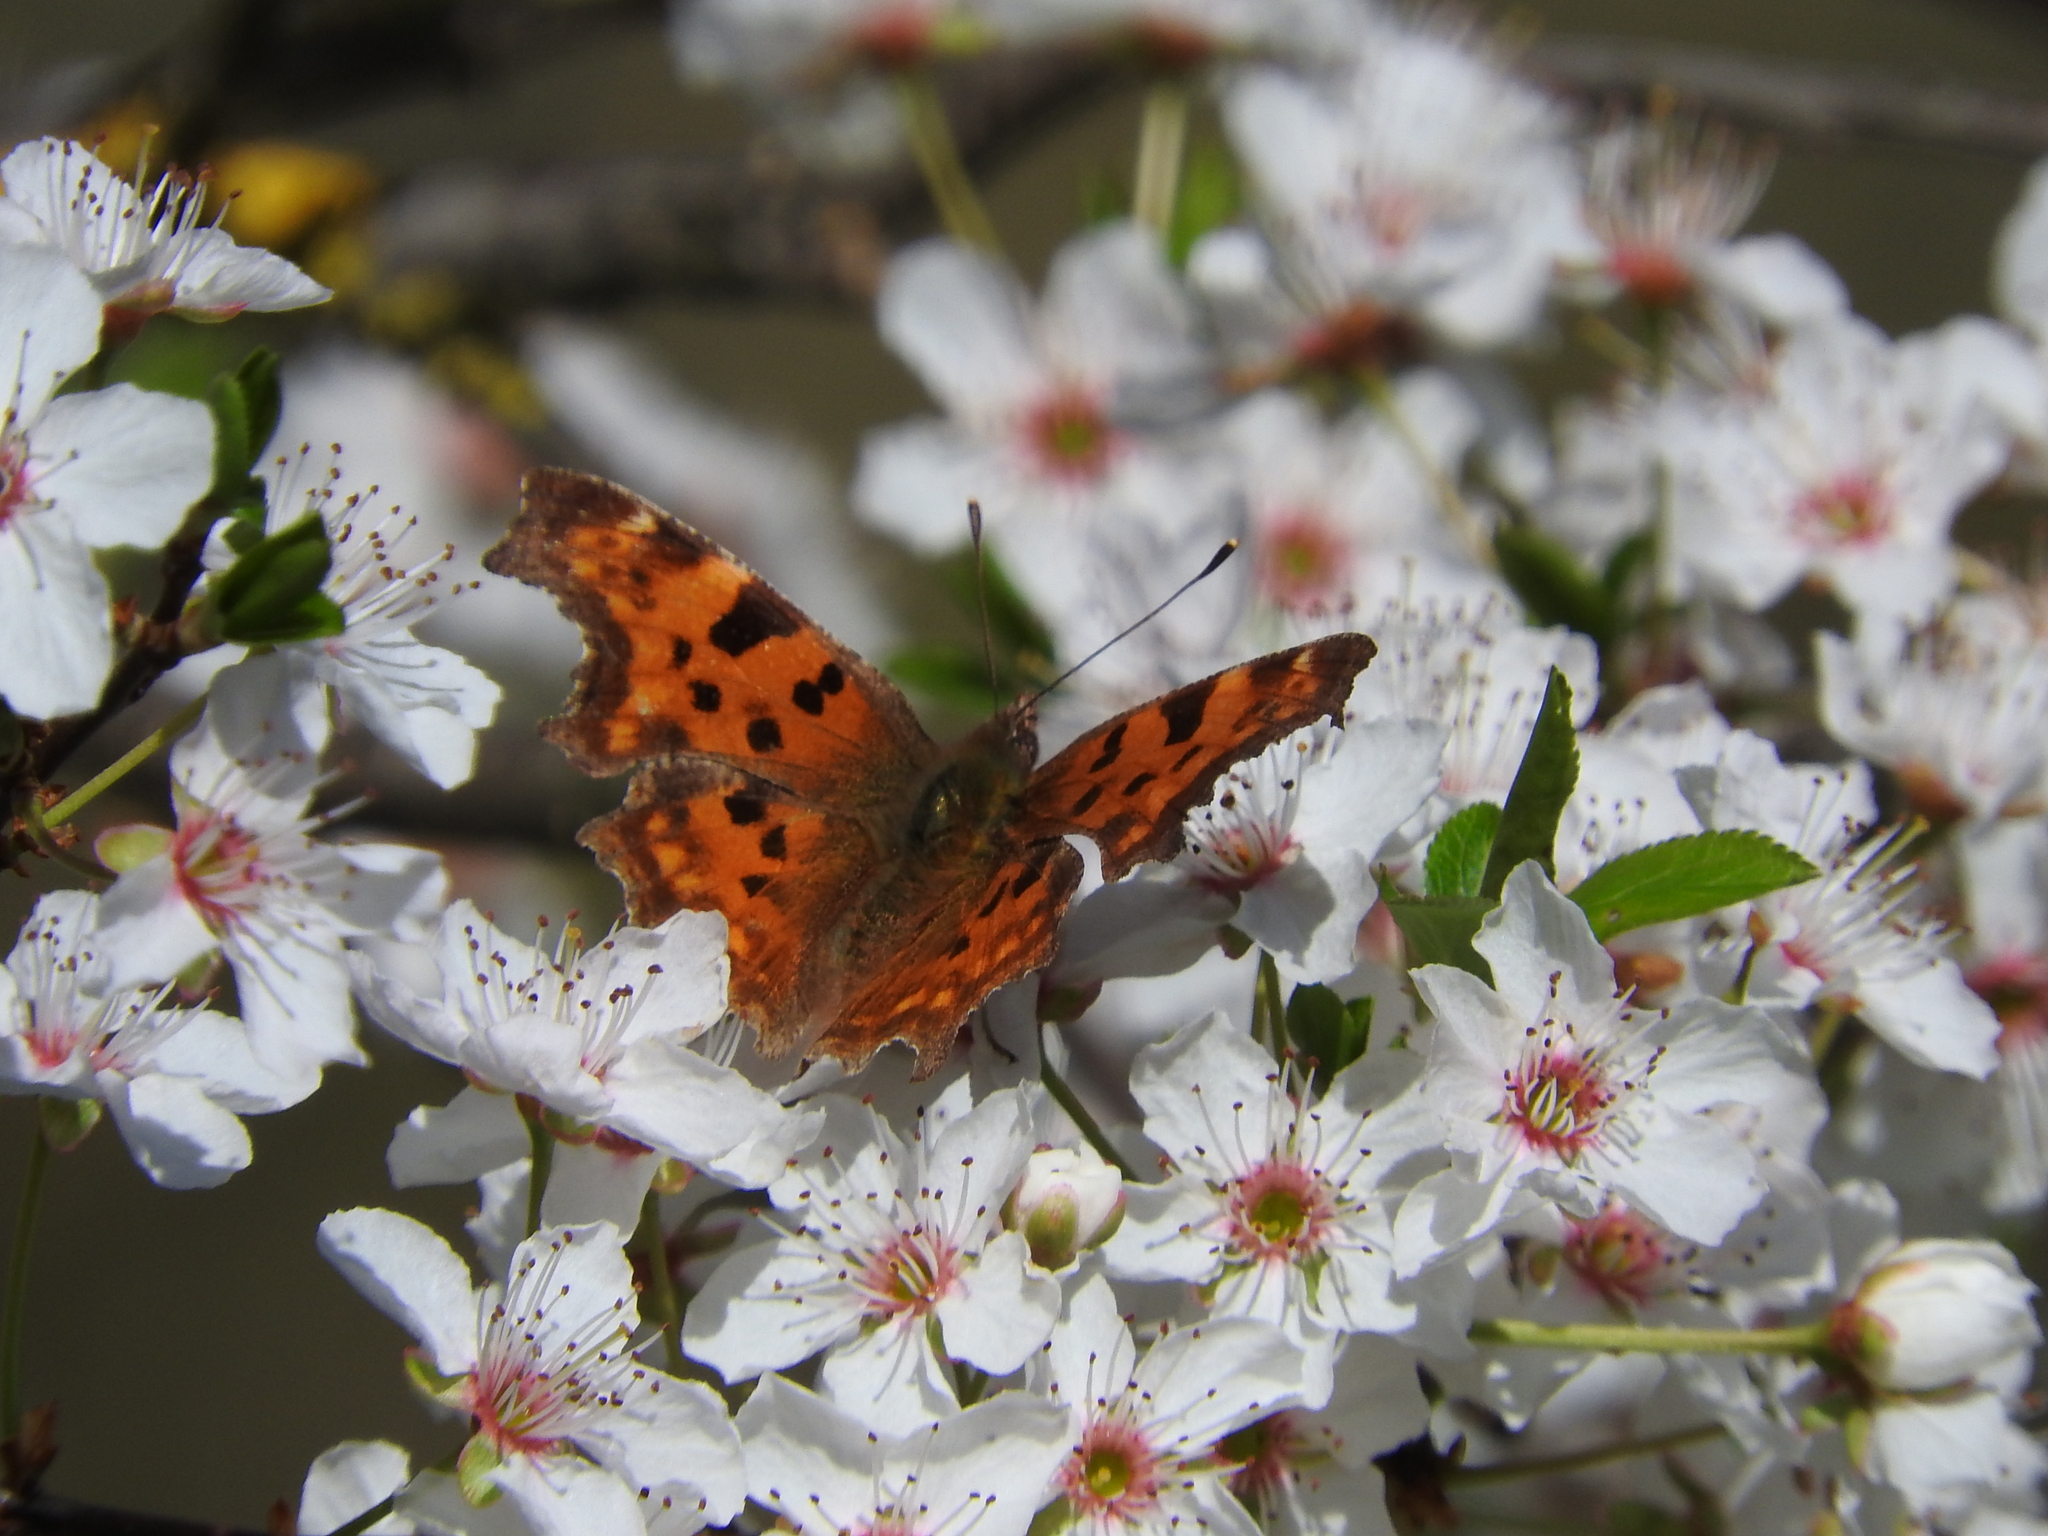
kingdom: Animalia
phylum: Arthropoda
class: Insecta
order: Lepidoptera
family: Nymphalidae
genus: Polygonia
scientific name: Polygonia c-album
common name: Comma
